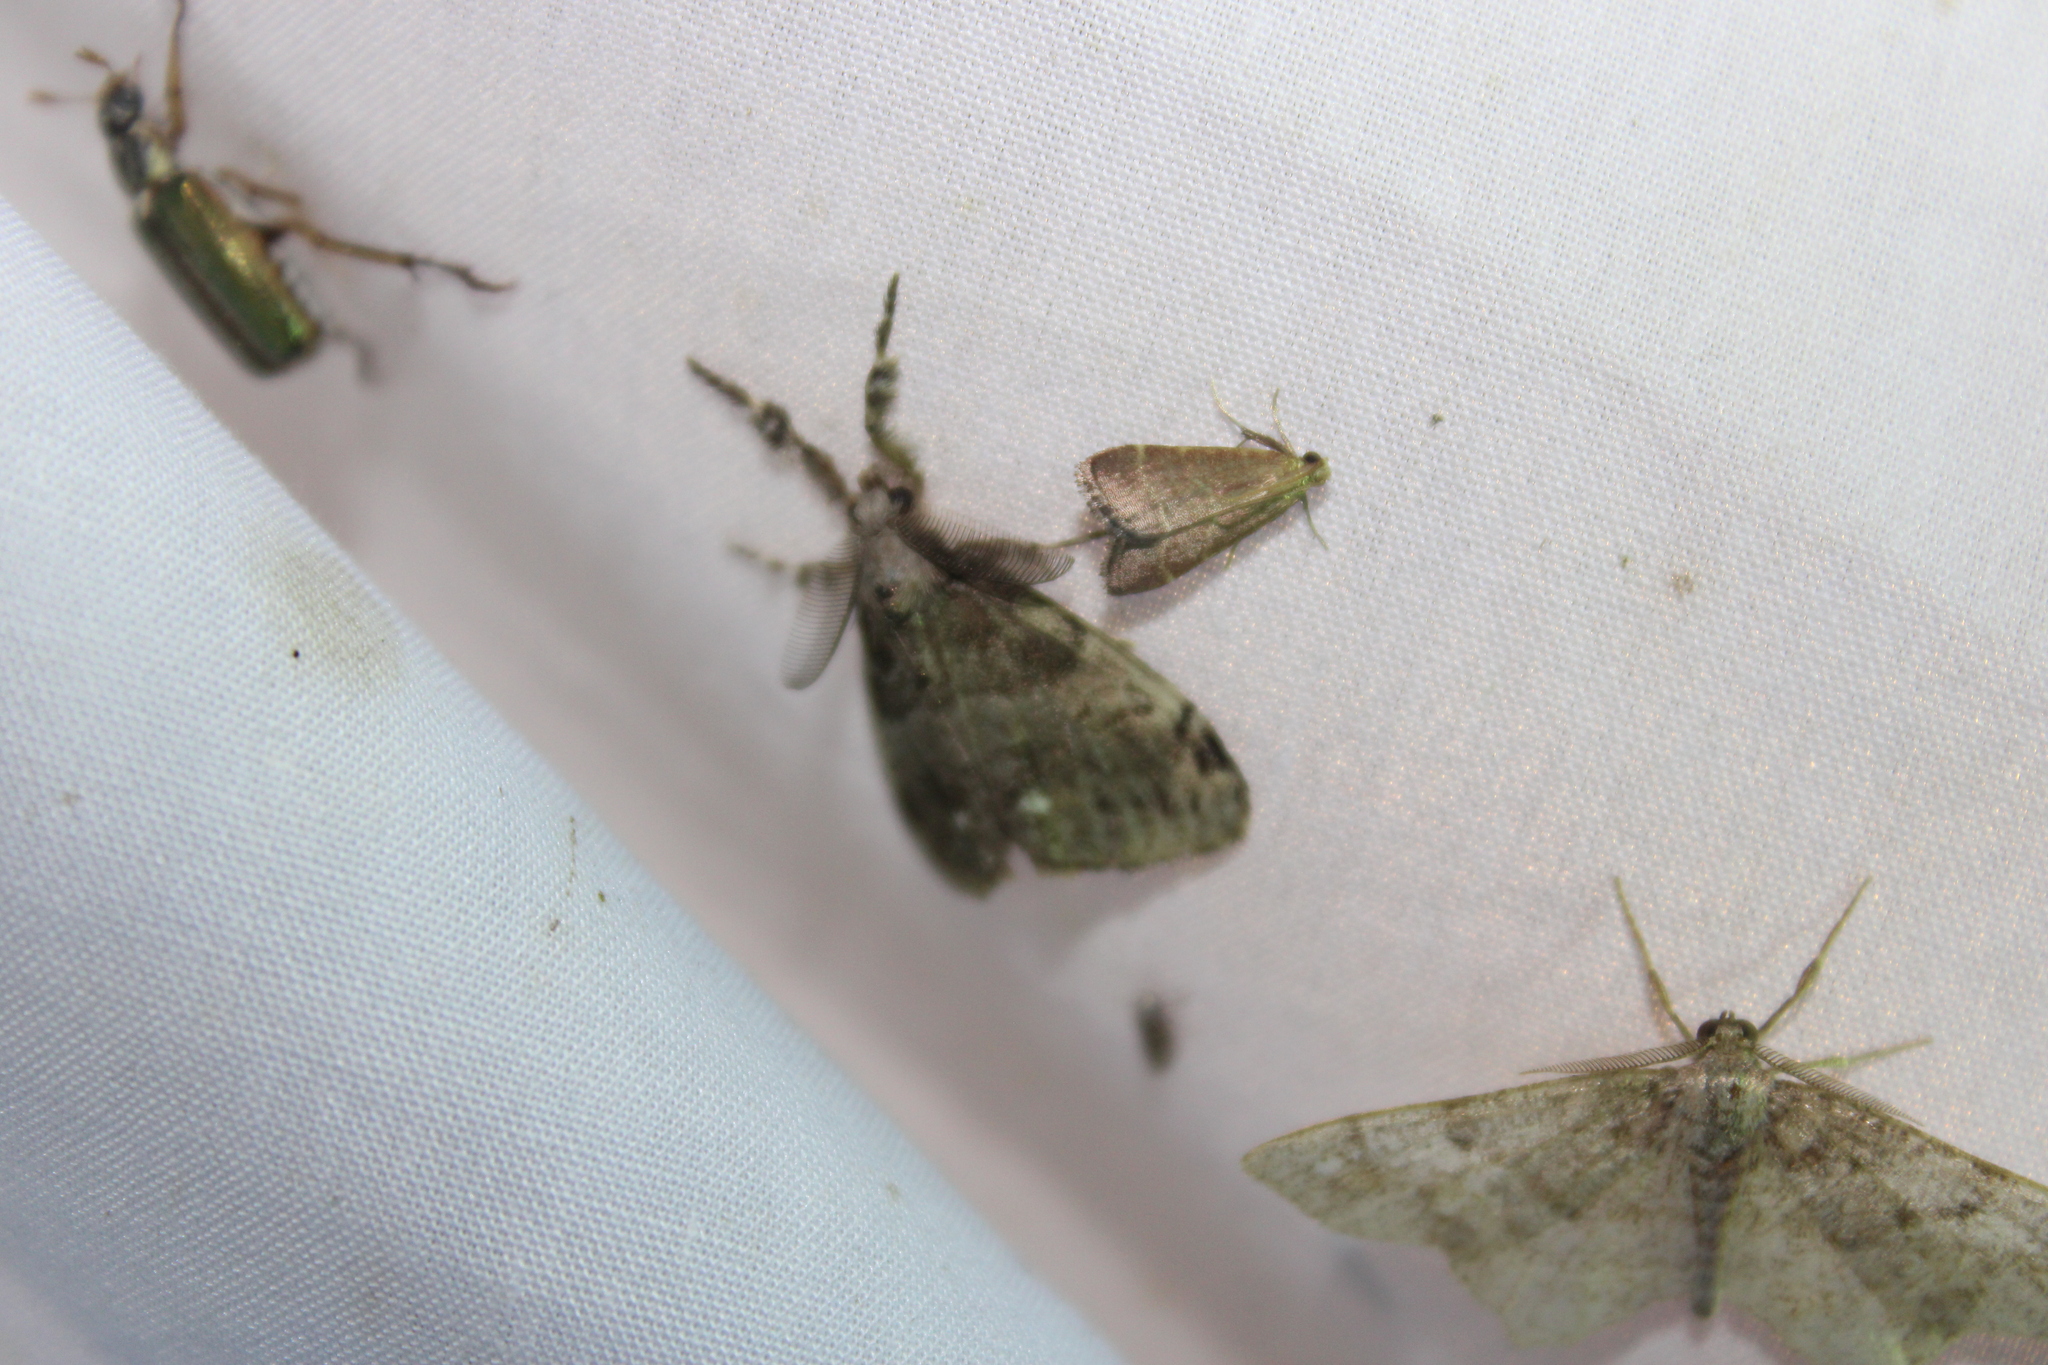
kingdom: Animalia
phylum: Arthropoda
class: Insecta
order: Lepidoptera
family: Erebidae
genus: Orgyia
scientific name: Orgyia leucostigma
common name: White-marked tussock moth
